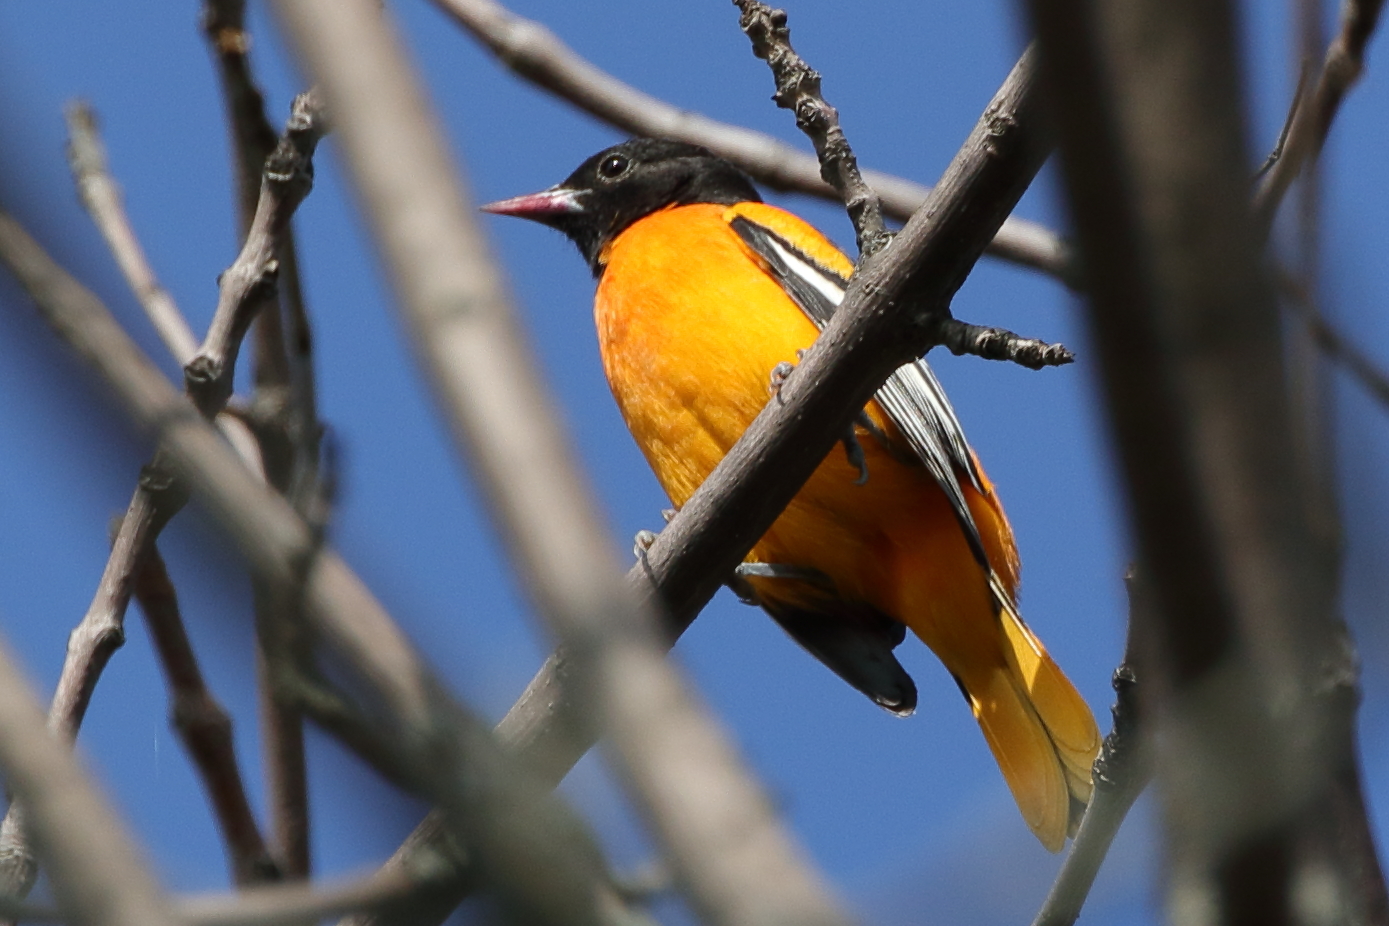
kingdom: Animalia
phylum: Chordata
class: Aves
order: Passeriformes
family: Icteridae
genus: Icterus
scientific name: Icterus galbula
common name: Baltimore oriole
